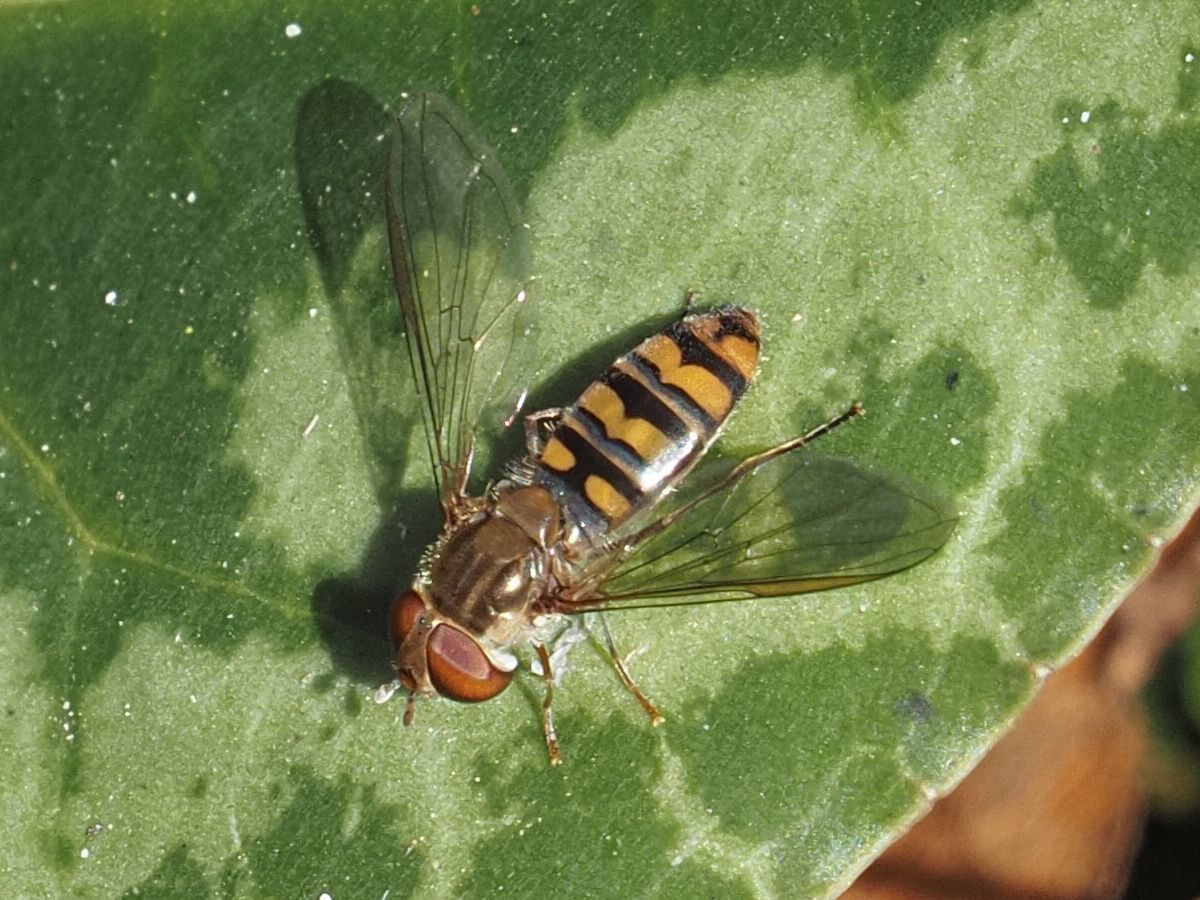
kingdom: Animalia
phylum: Arthropoda
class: Insecta
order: Diptera
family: Syrphidae
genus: Episyrphus
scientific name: Episyrphus balteatus
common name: Marmalade hoverfly
